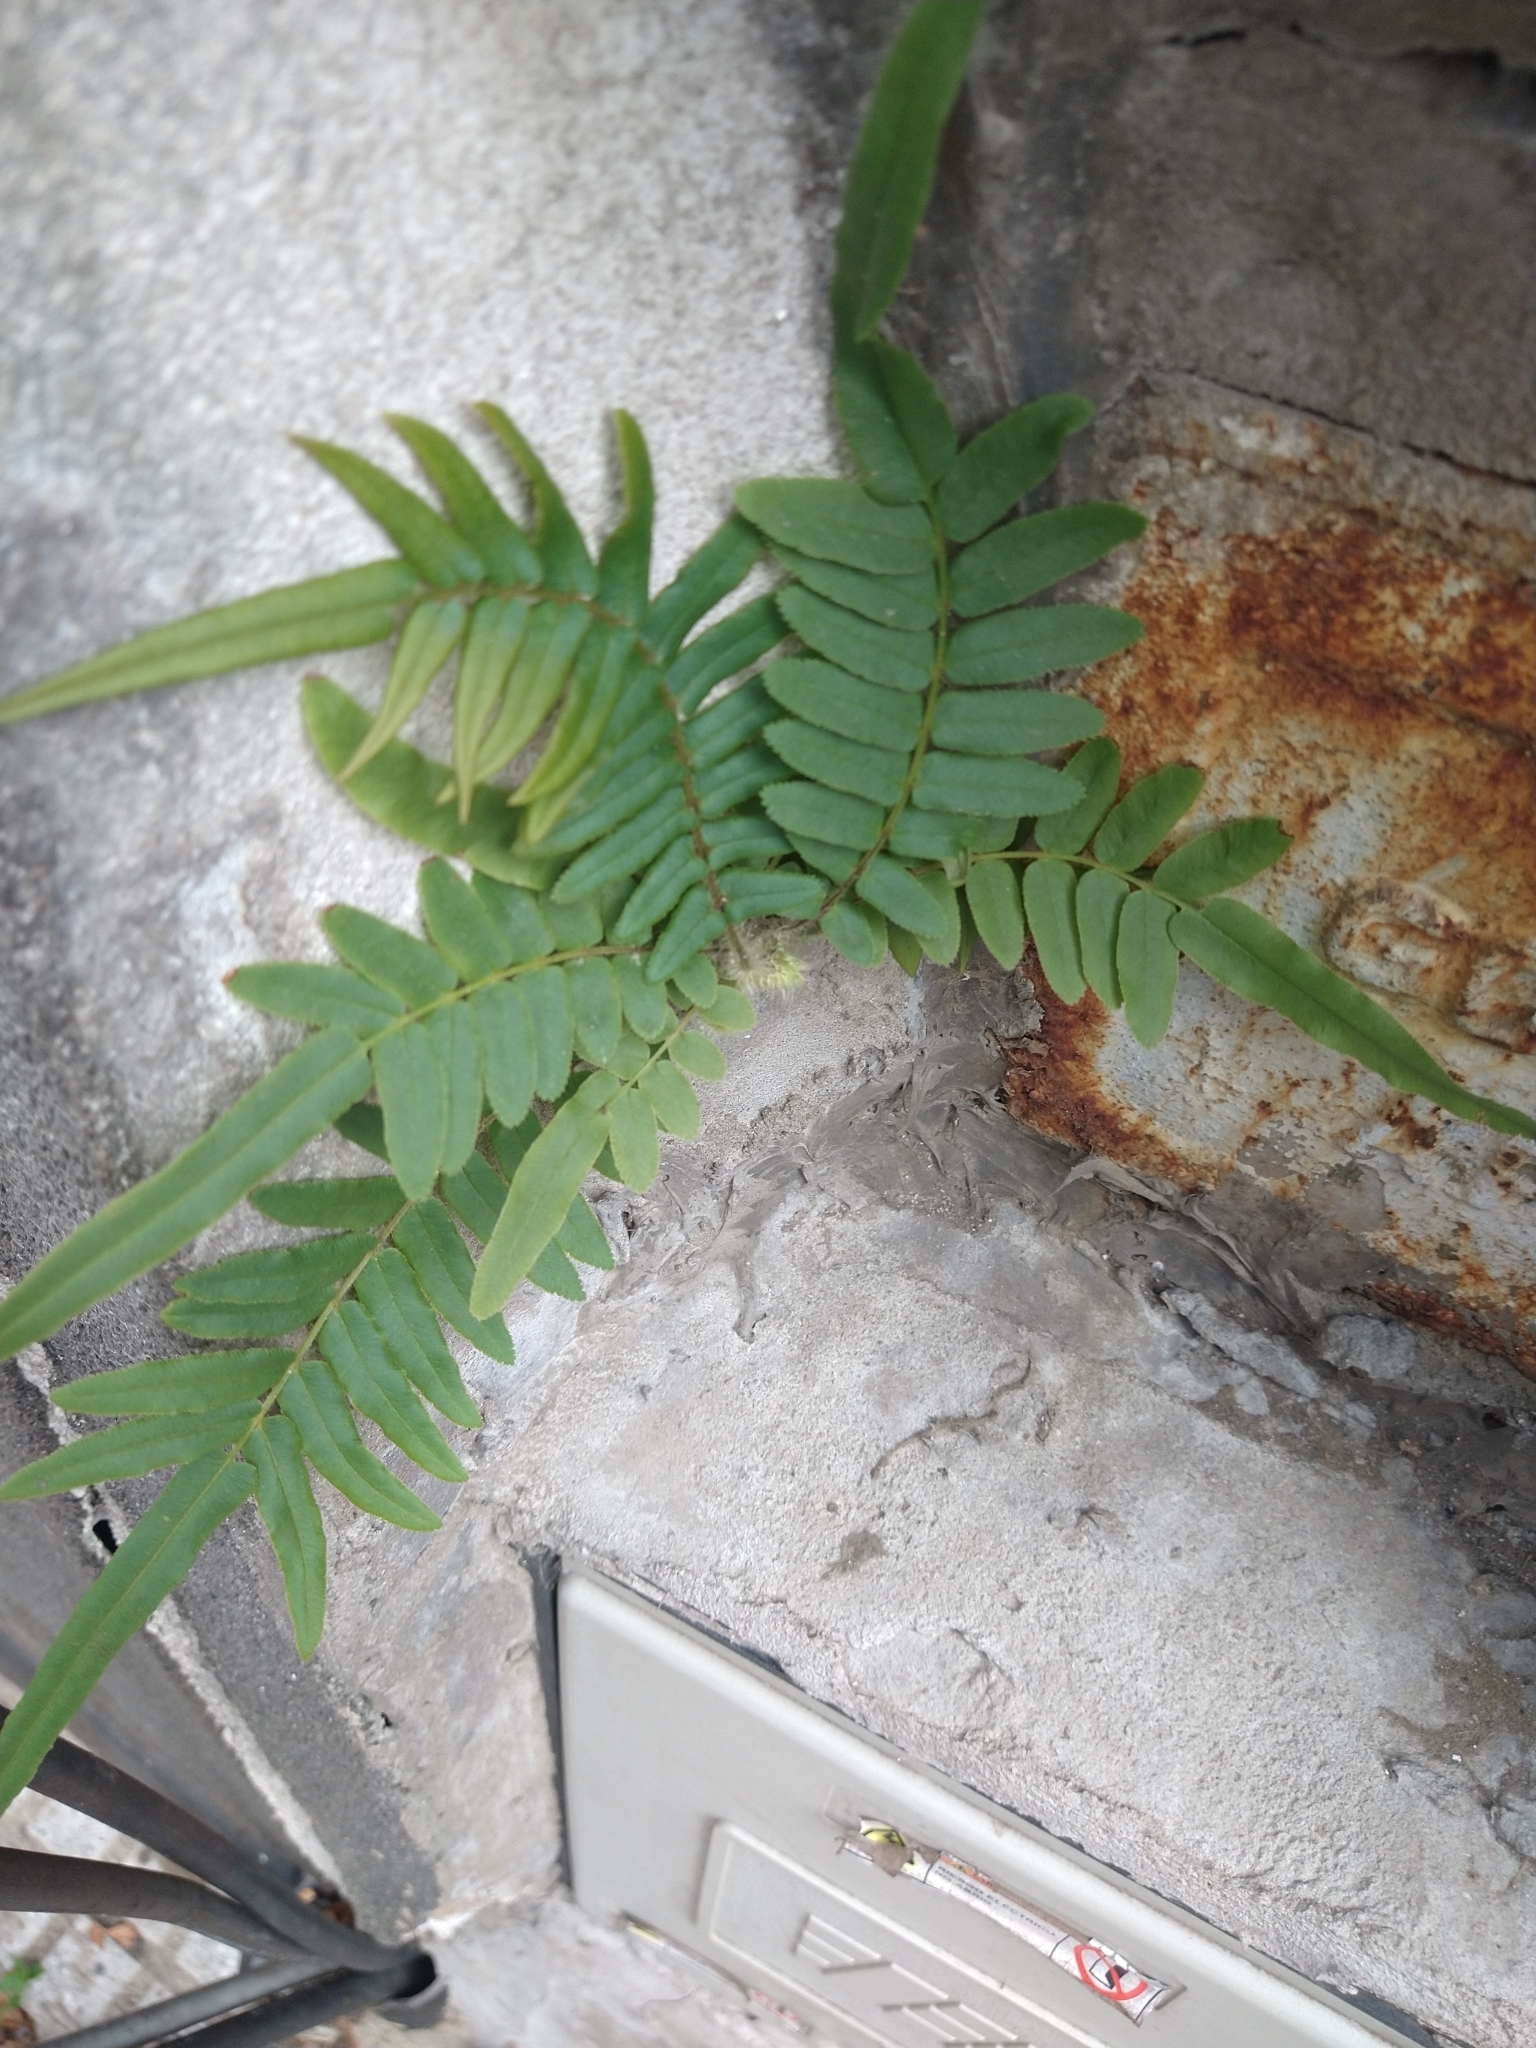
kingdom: Plantae
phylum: Tracheophyta
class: Polypodiopsida
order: Polypodiales
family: Pteridaceae
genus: Pteris
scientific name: Pteris vittata
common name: Ladder brake
